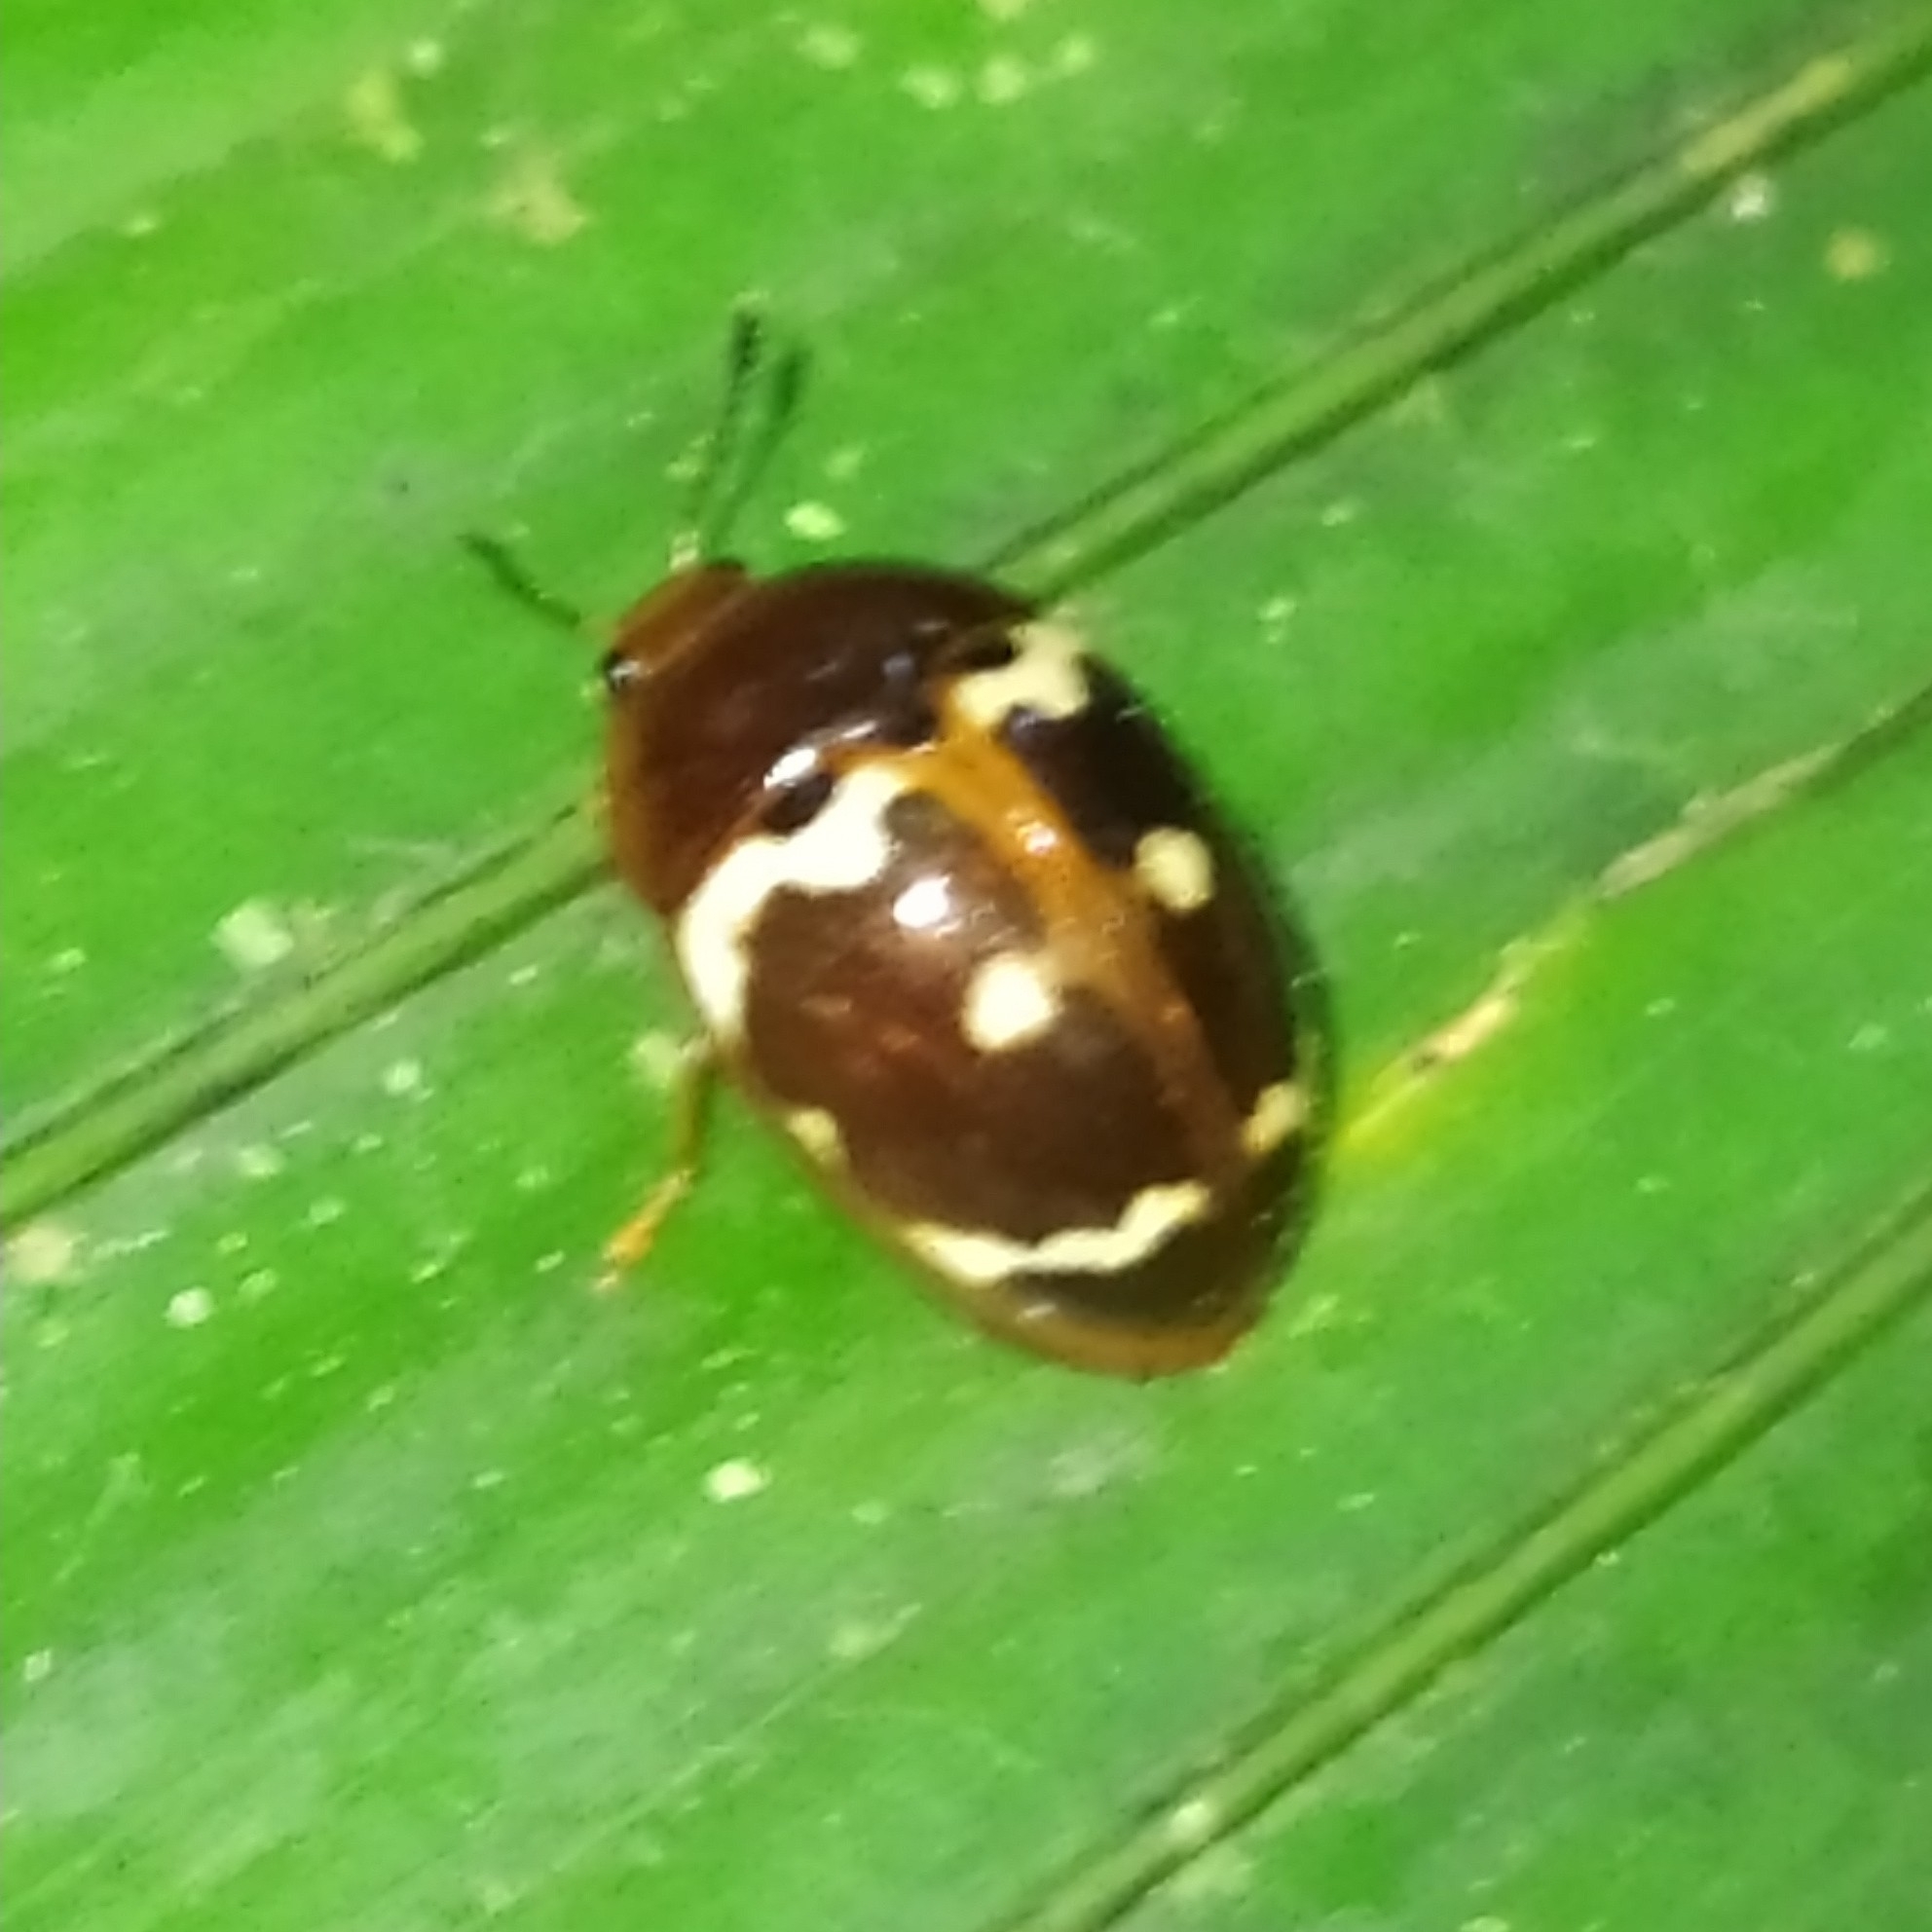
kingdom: Animalia
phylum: Arthropoda
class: Insecta
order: Coleoptera
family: Erotylidae
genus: Iphiclus
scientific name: Iphiclus porcellana
